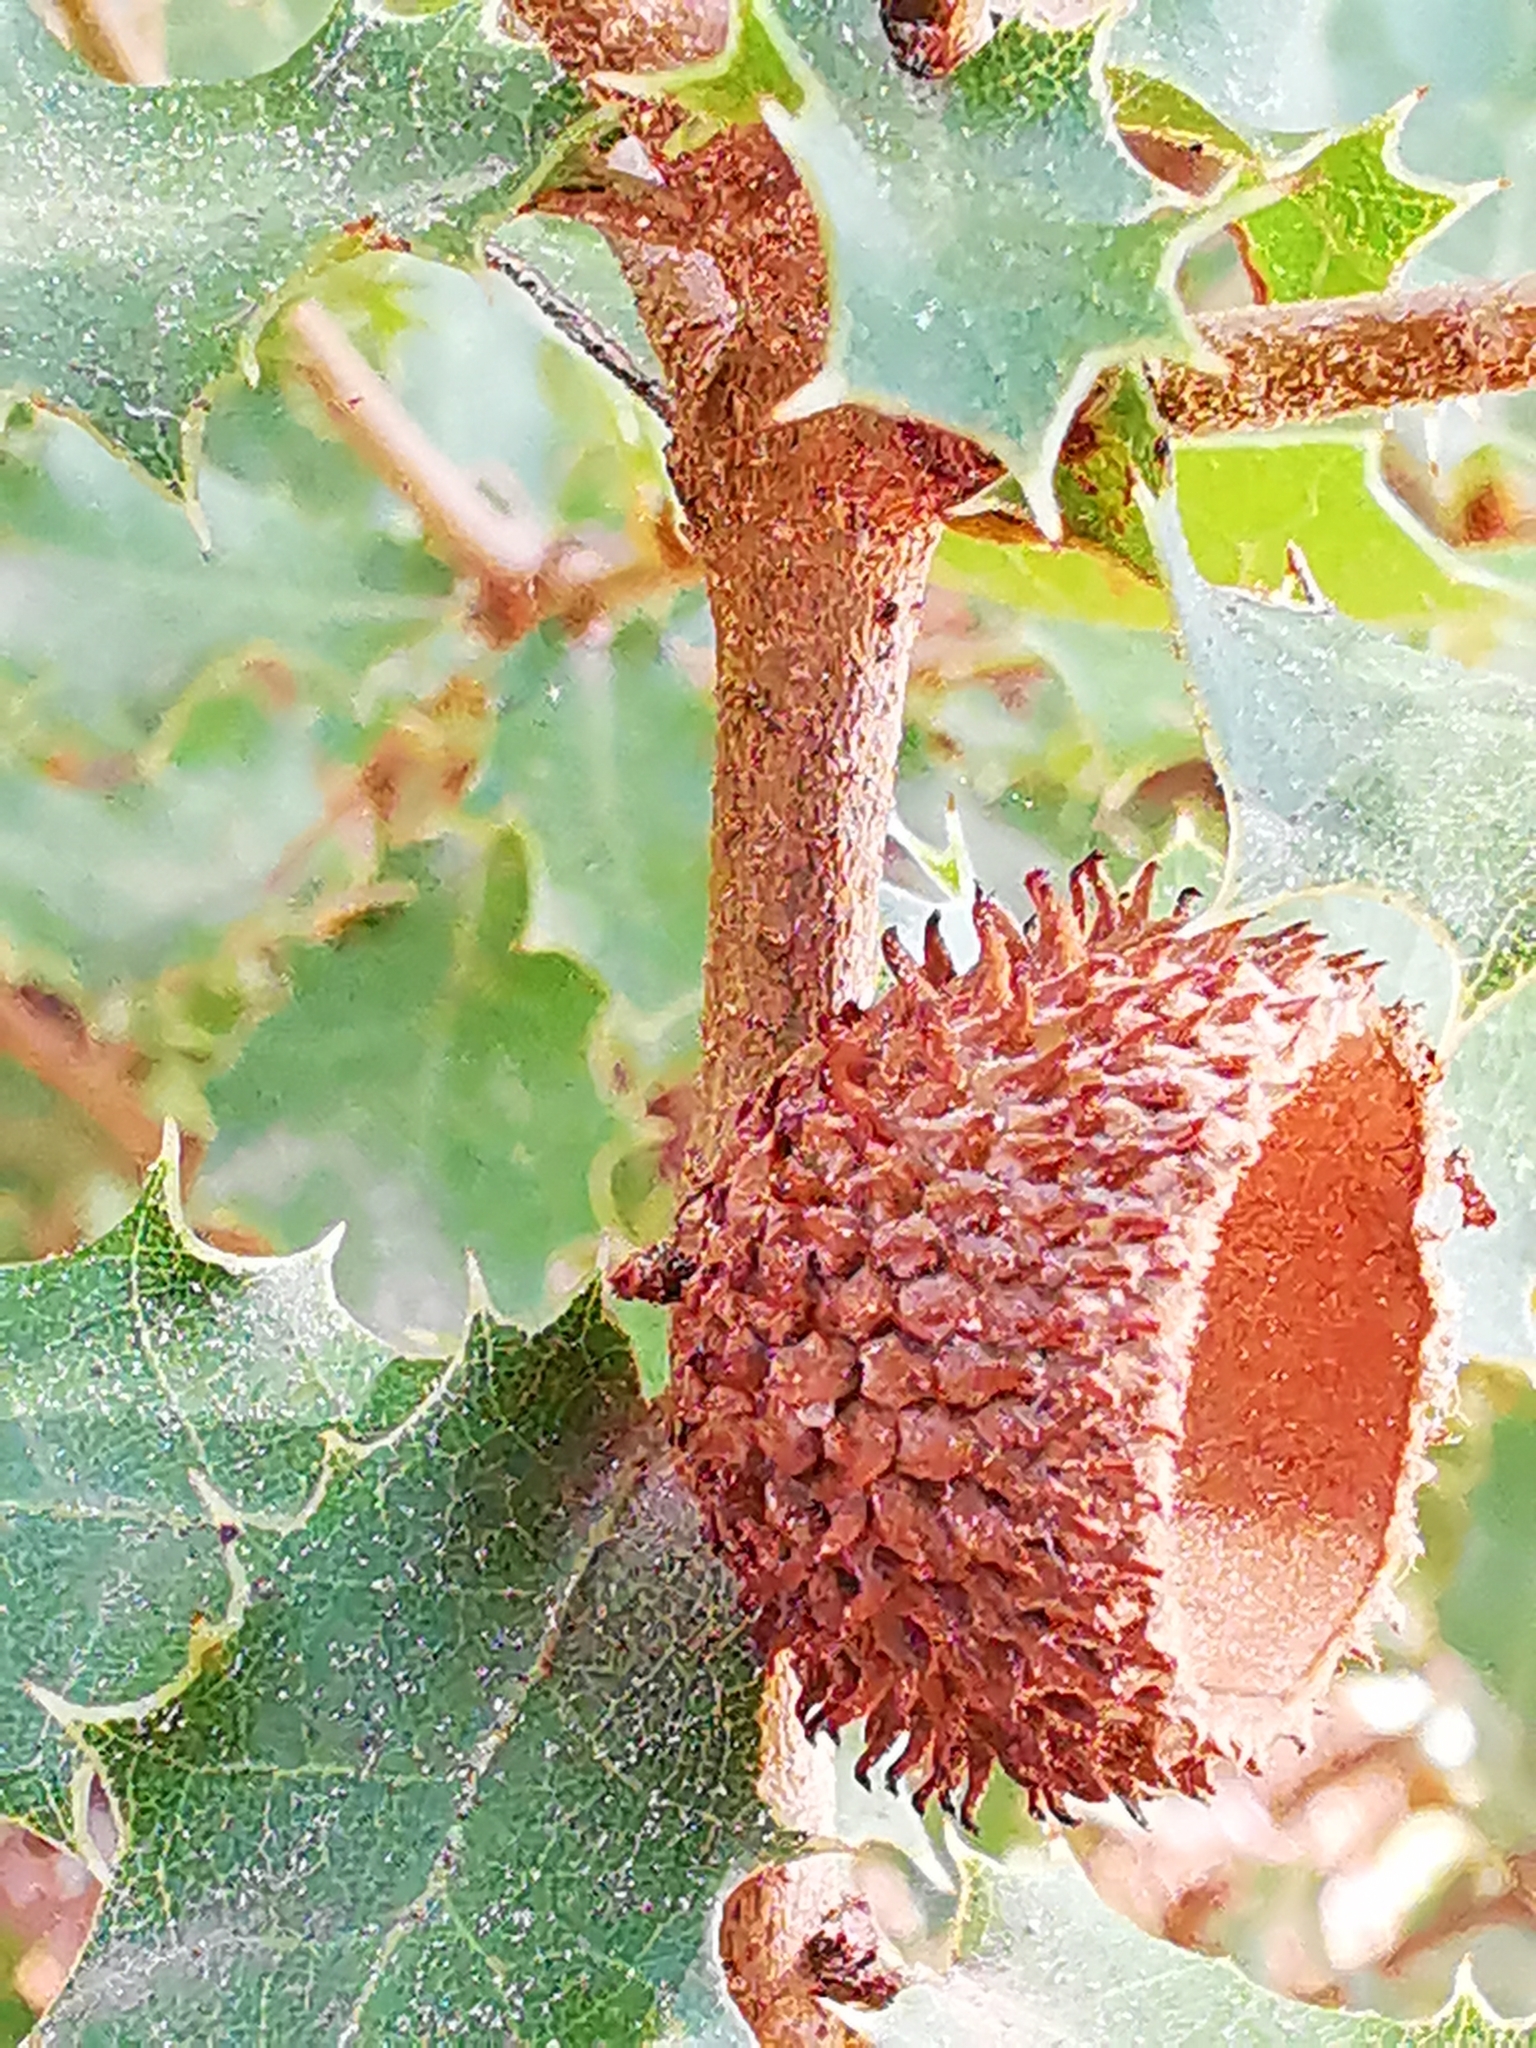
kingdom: Plantae
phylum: Tracheophyta
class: Magnoliopsida
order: Fagales
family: Fagaceae
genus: Quercus
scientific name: Quercus coccifera
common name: Kermes oak
